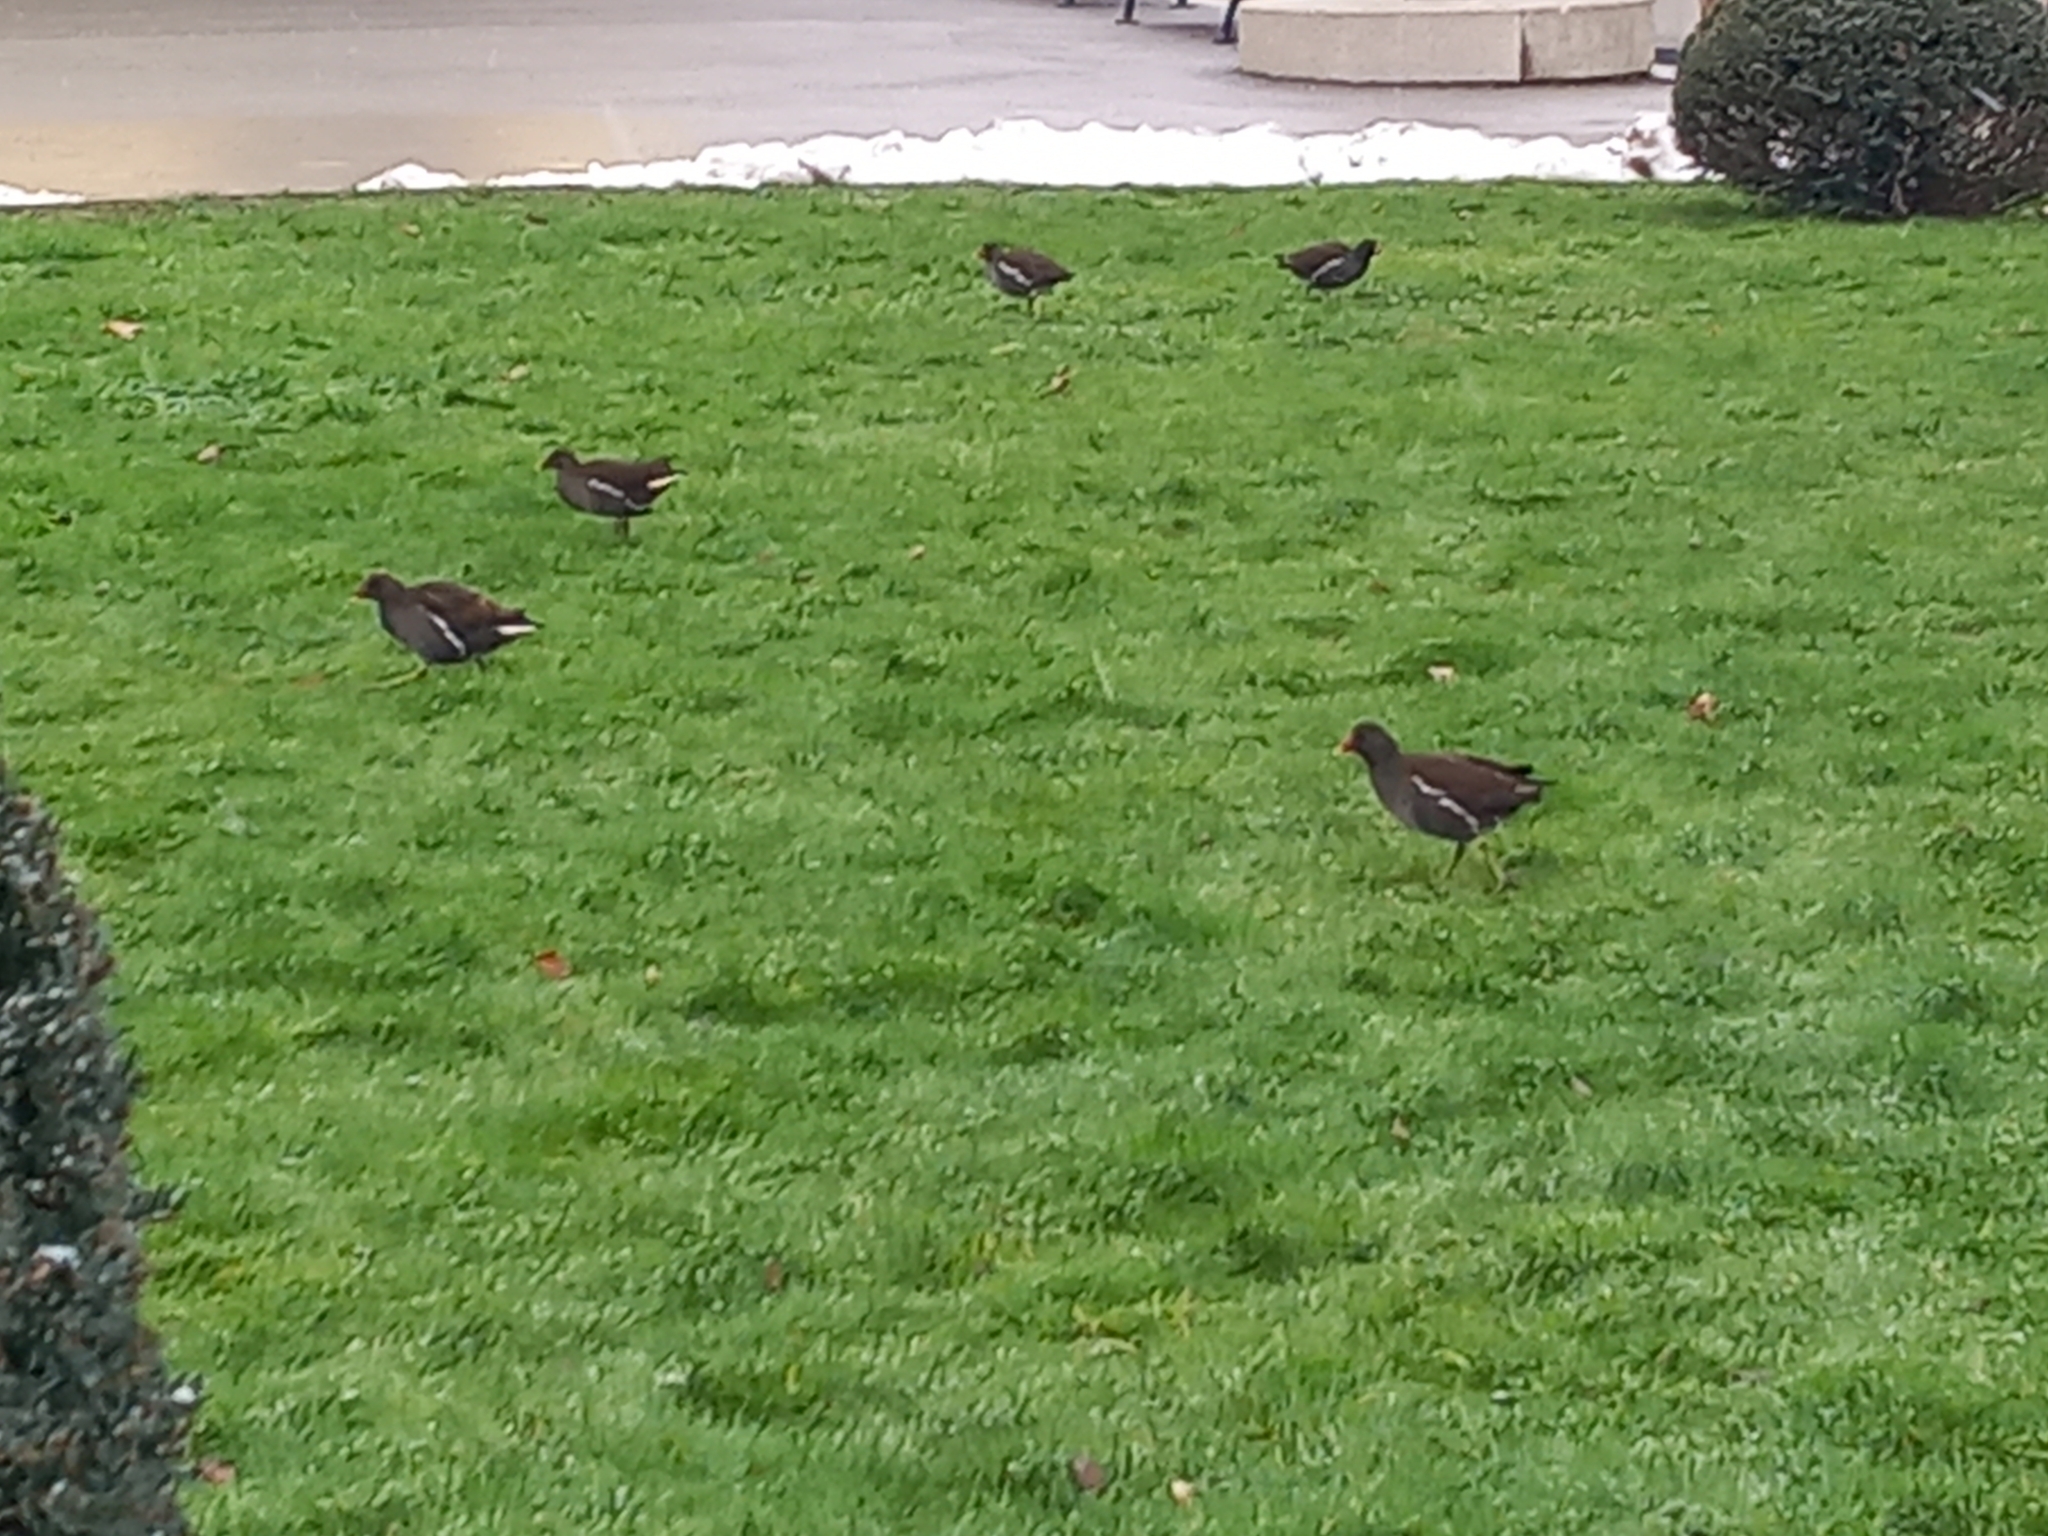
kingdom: Animalia
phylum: Chordata
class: Aves
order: Gruiformes
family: Rallidae
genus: Gallinula
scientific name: Gallinula chloropus
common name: Common moorhen
